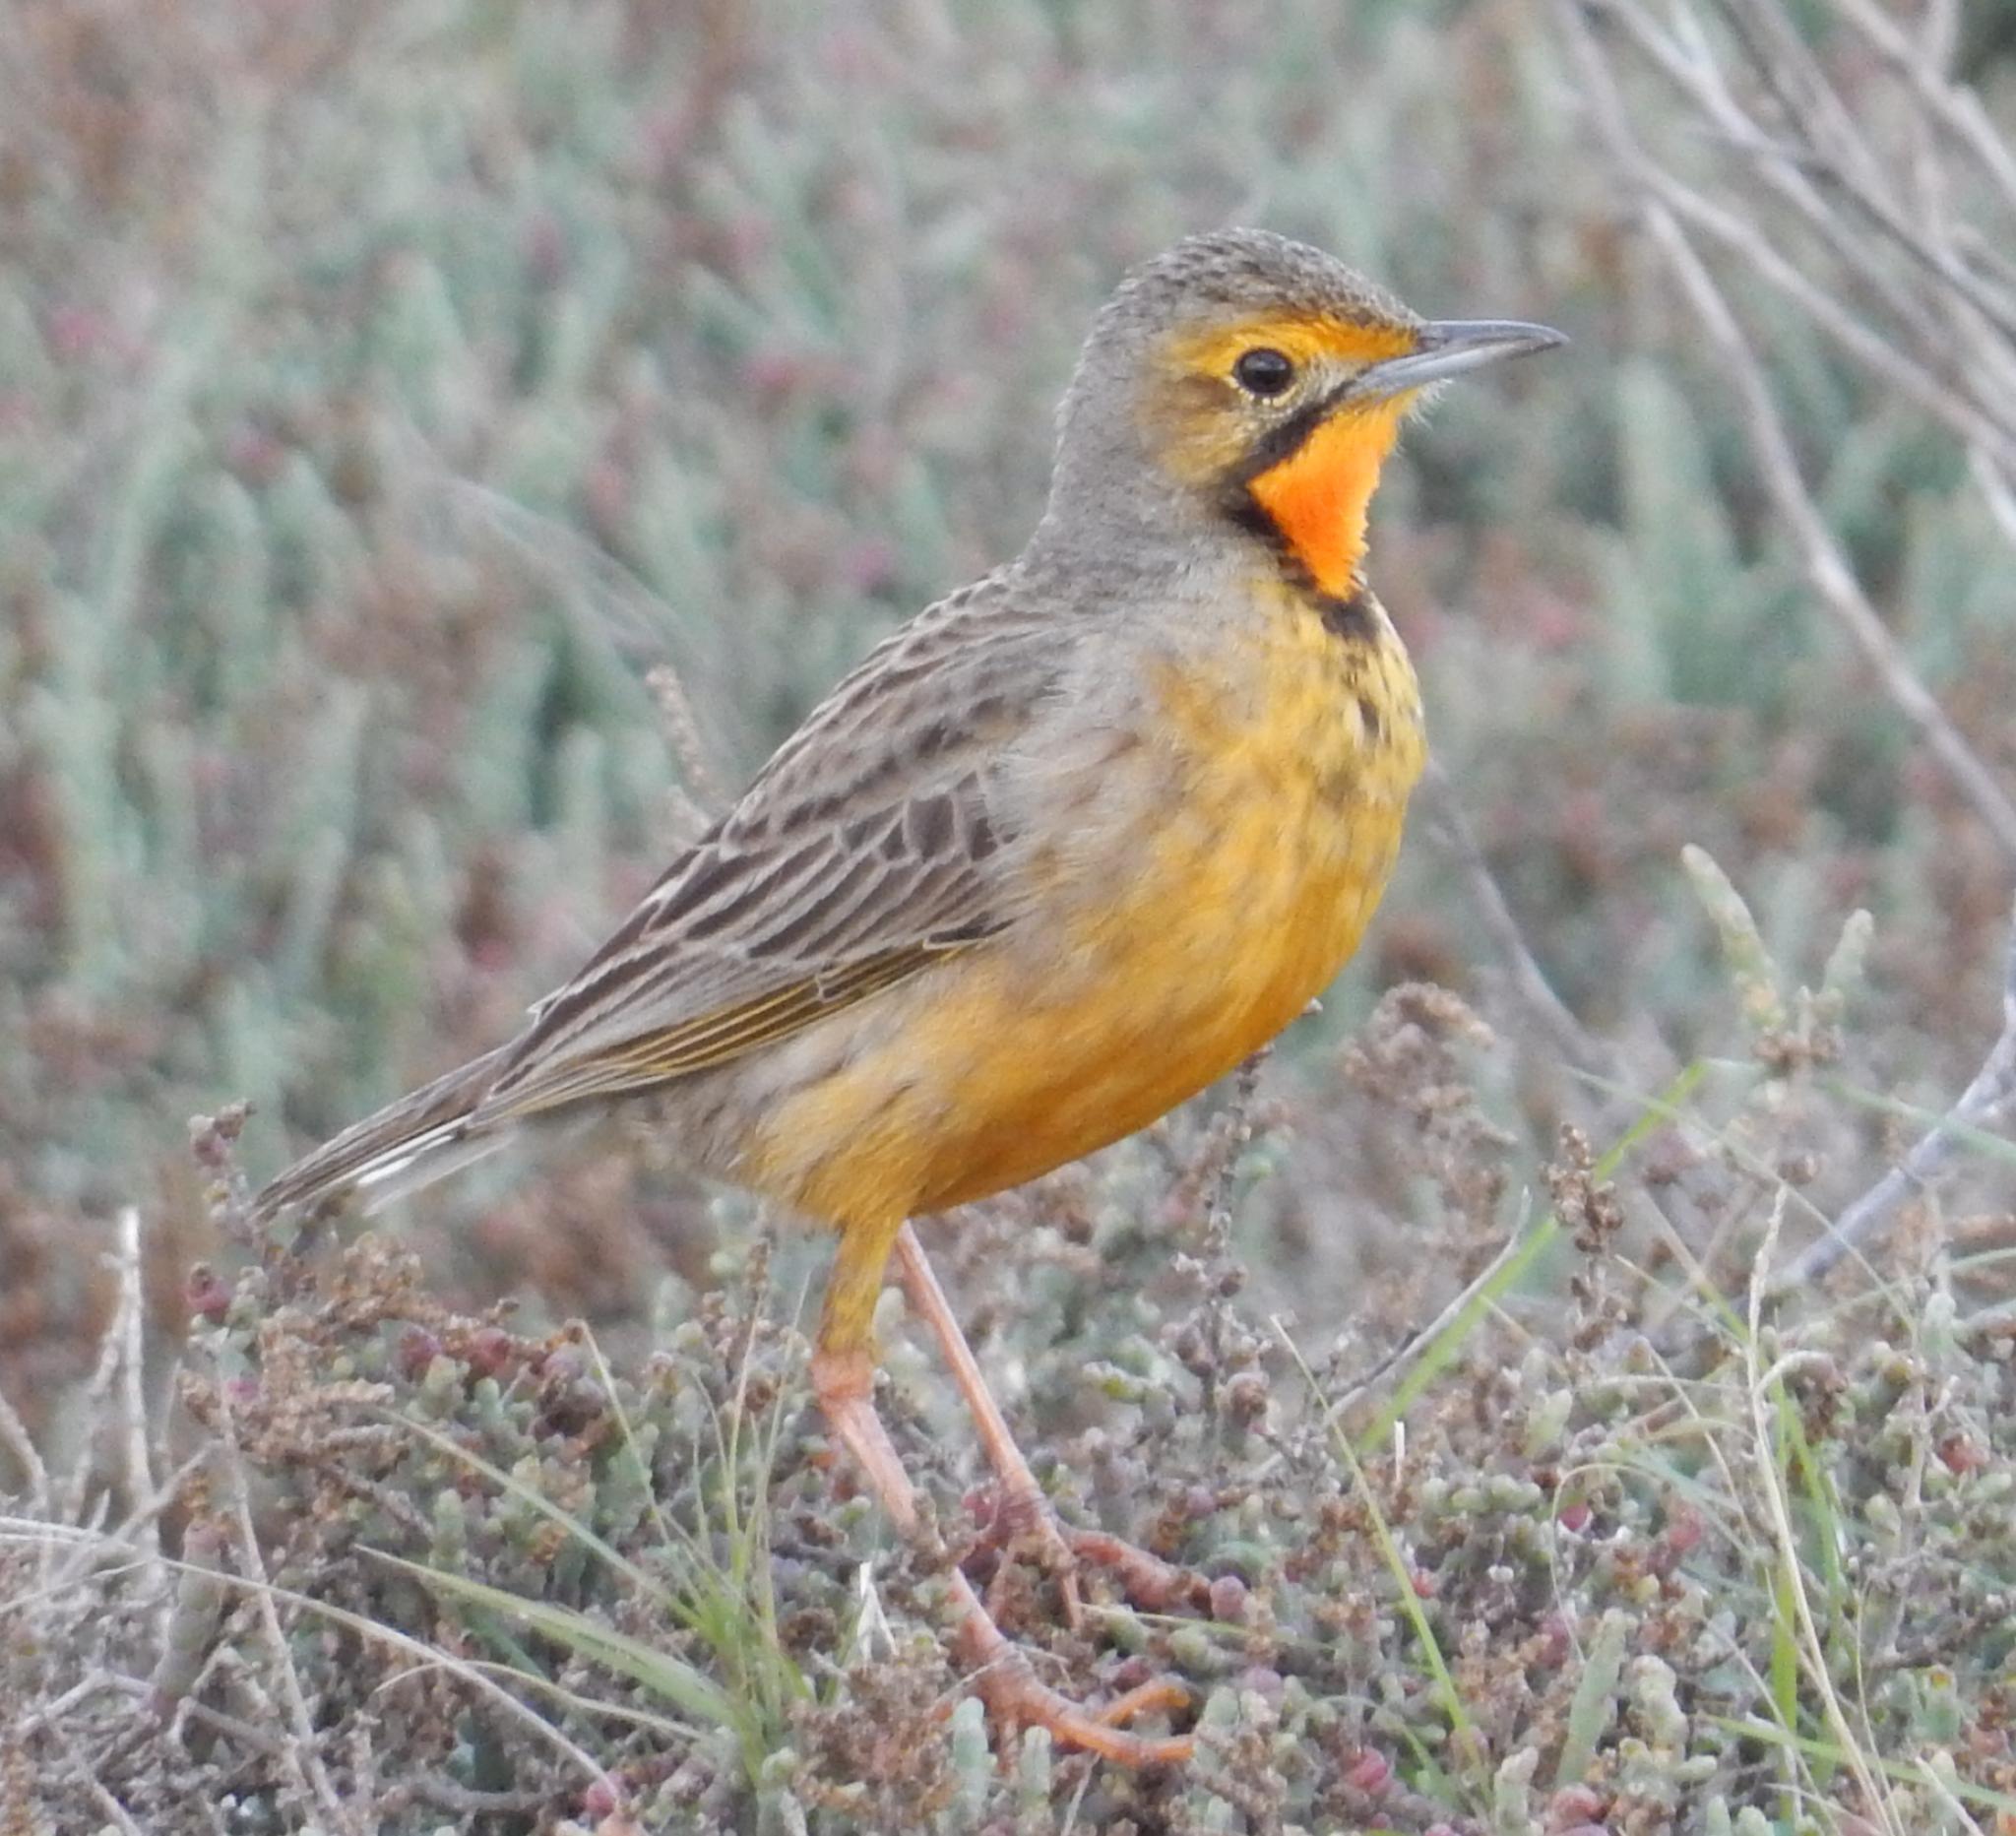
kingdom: Animalia
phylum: Chordata
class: Aves
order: Passeriformes
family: Motacillidae
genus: Macronyx
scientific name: Macronyx capensis
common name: Cape longclaw
